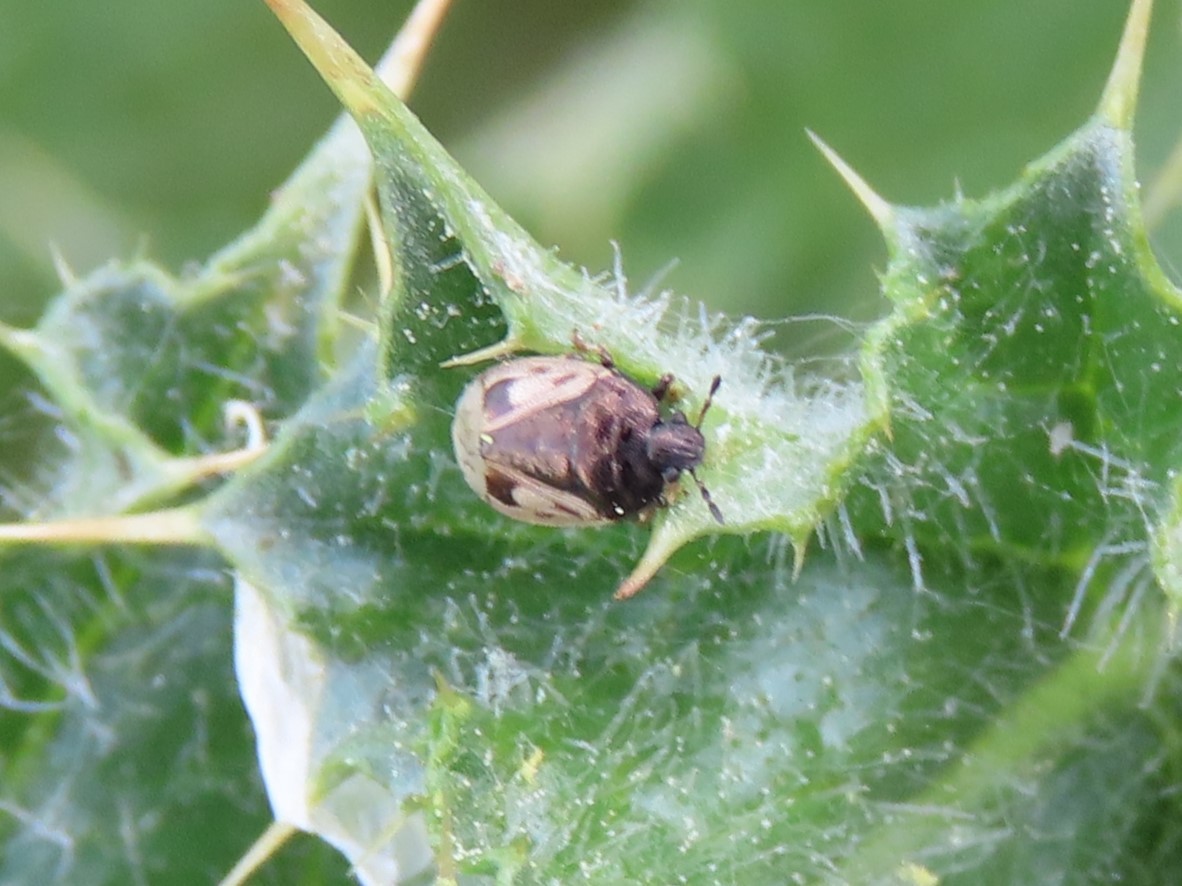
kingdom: Animalia
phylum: Arthropoda
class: Insecta
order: Hemiptera
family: Cydnidae
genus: Crocistethus
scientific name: Crocistethus waltlianus
